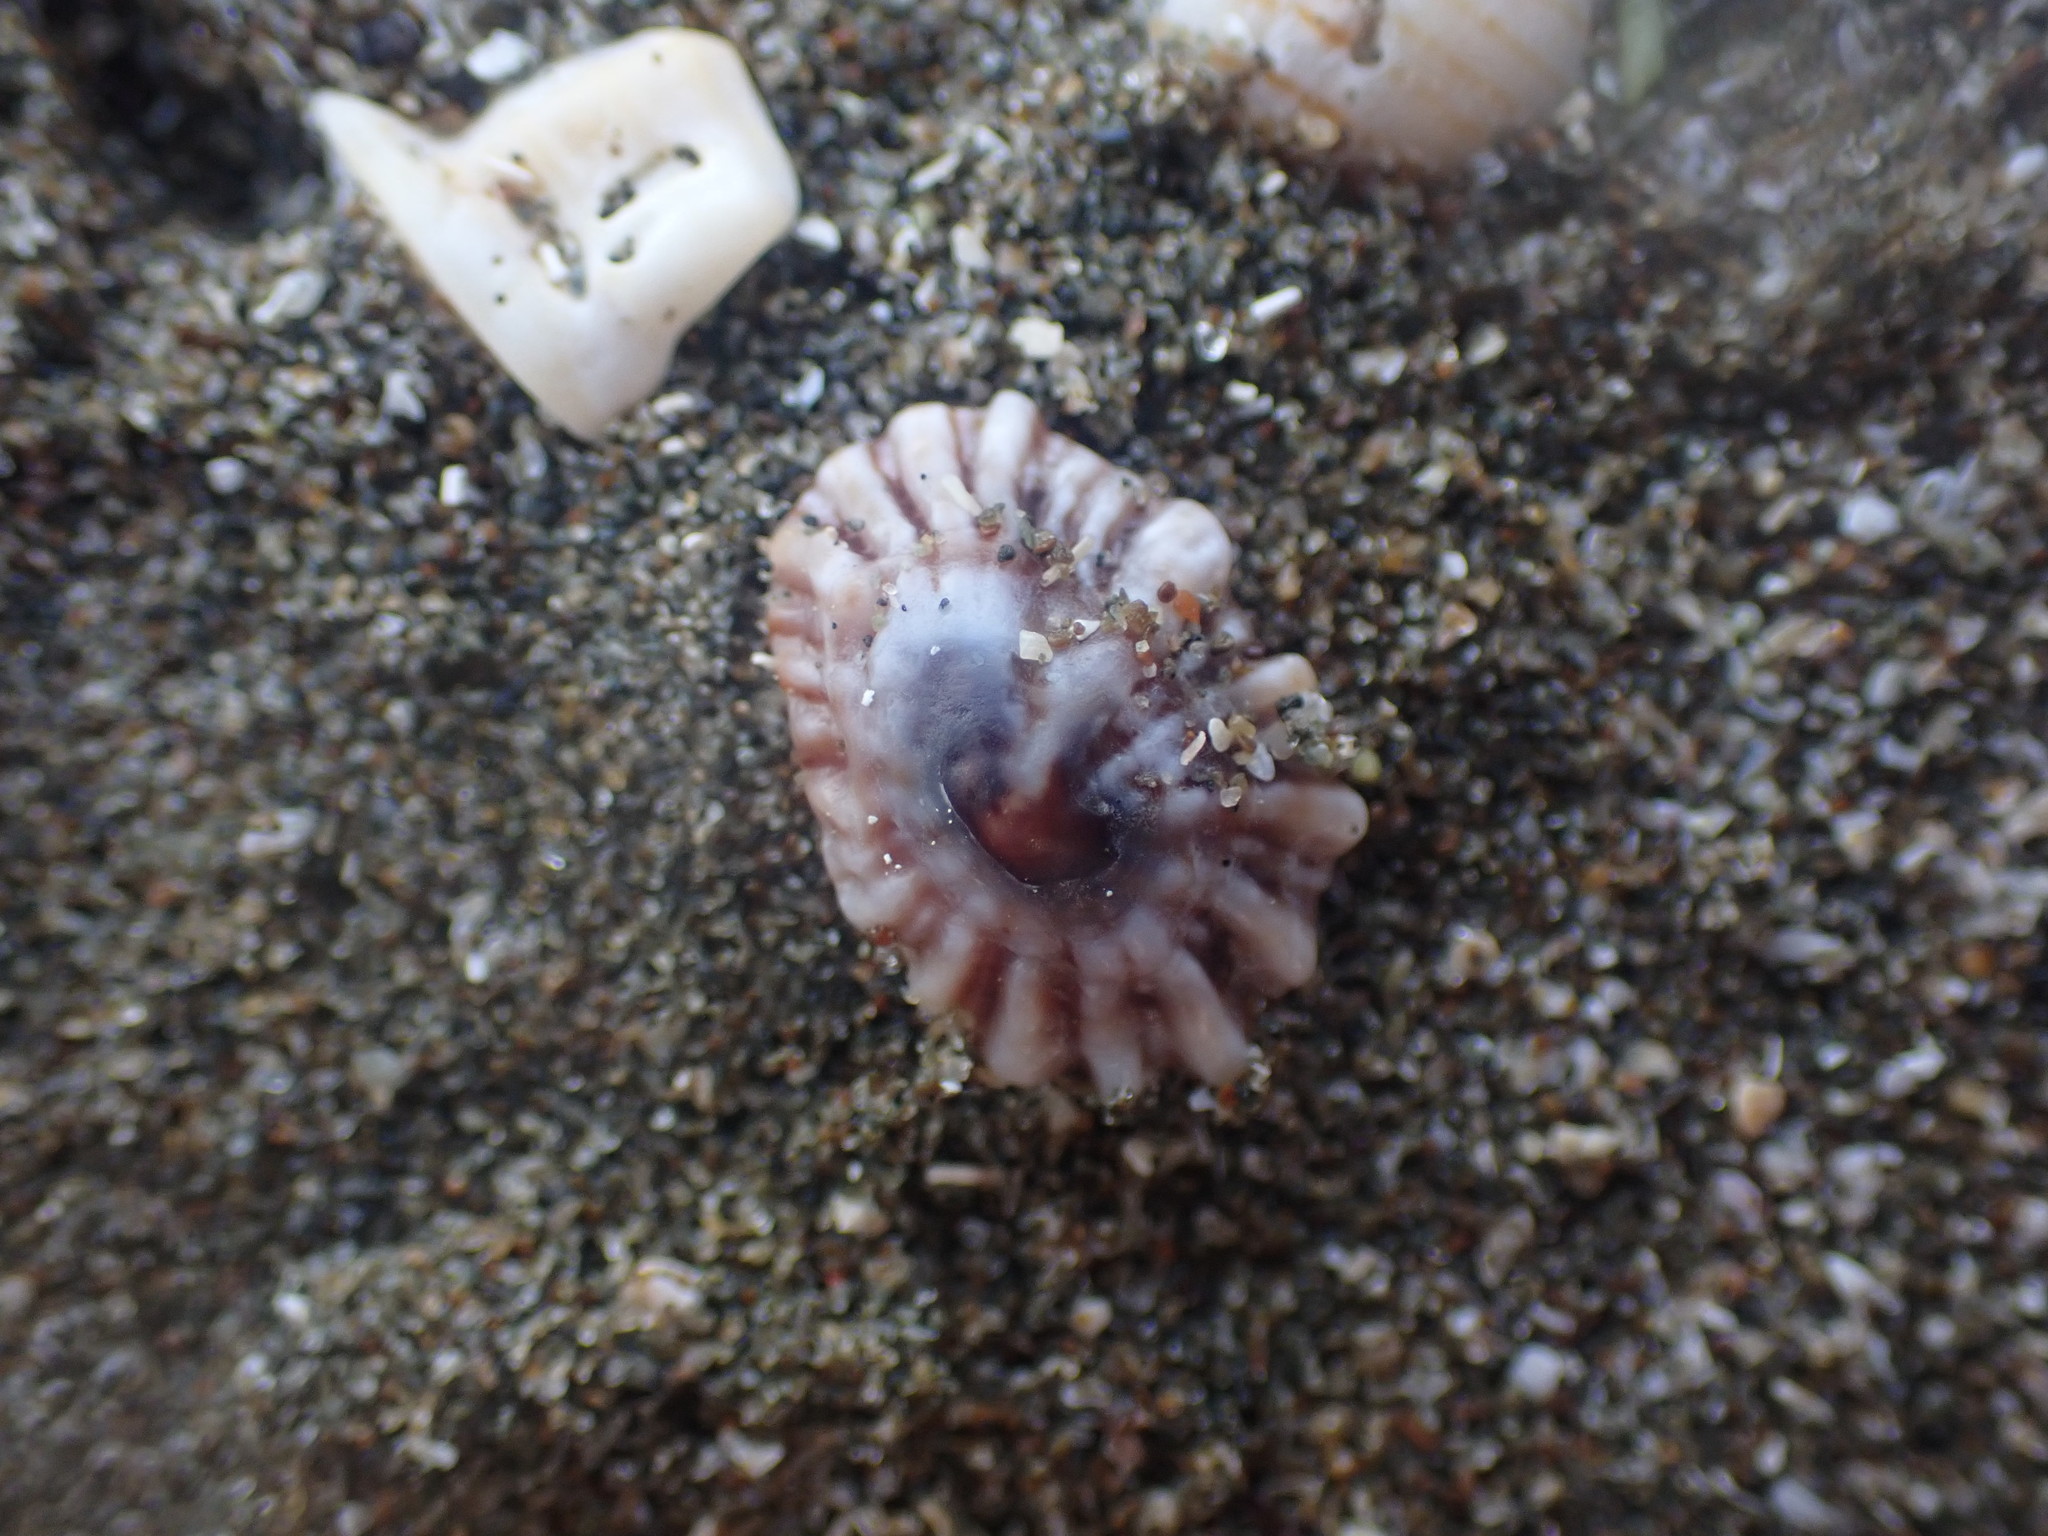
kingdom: Animalia
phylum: Mollusca
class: Gastropoda
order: Siphonariida
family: Siphonariidae
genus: Siphonaria
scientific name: Siphonaria australis
